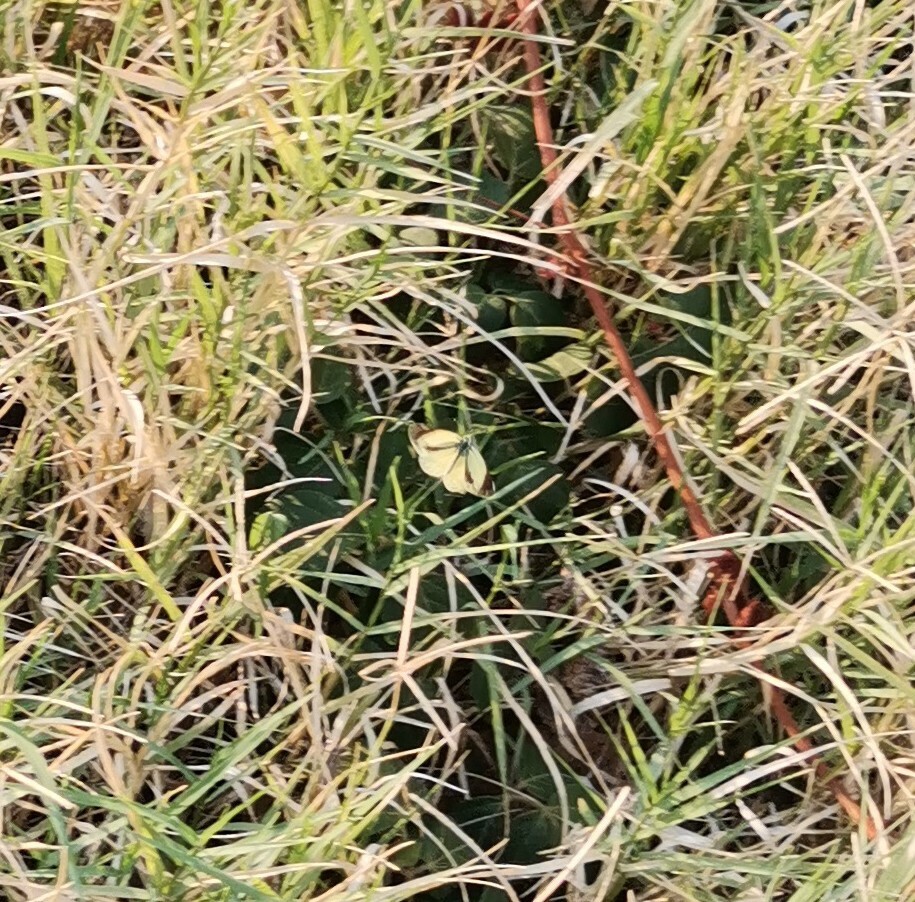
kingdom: Animalia
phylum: Arthropoda
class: Insecta
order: Lepidoptera
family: Pieridae
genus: Nathalis
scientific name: Nathalis iole
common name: Dainty sulphur
